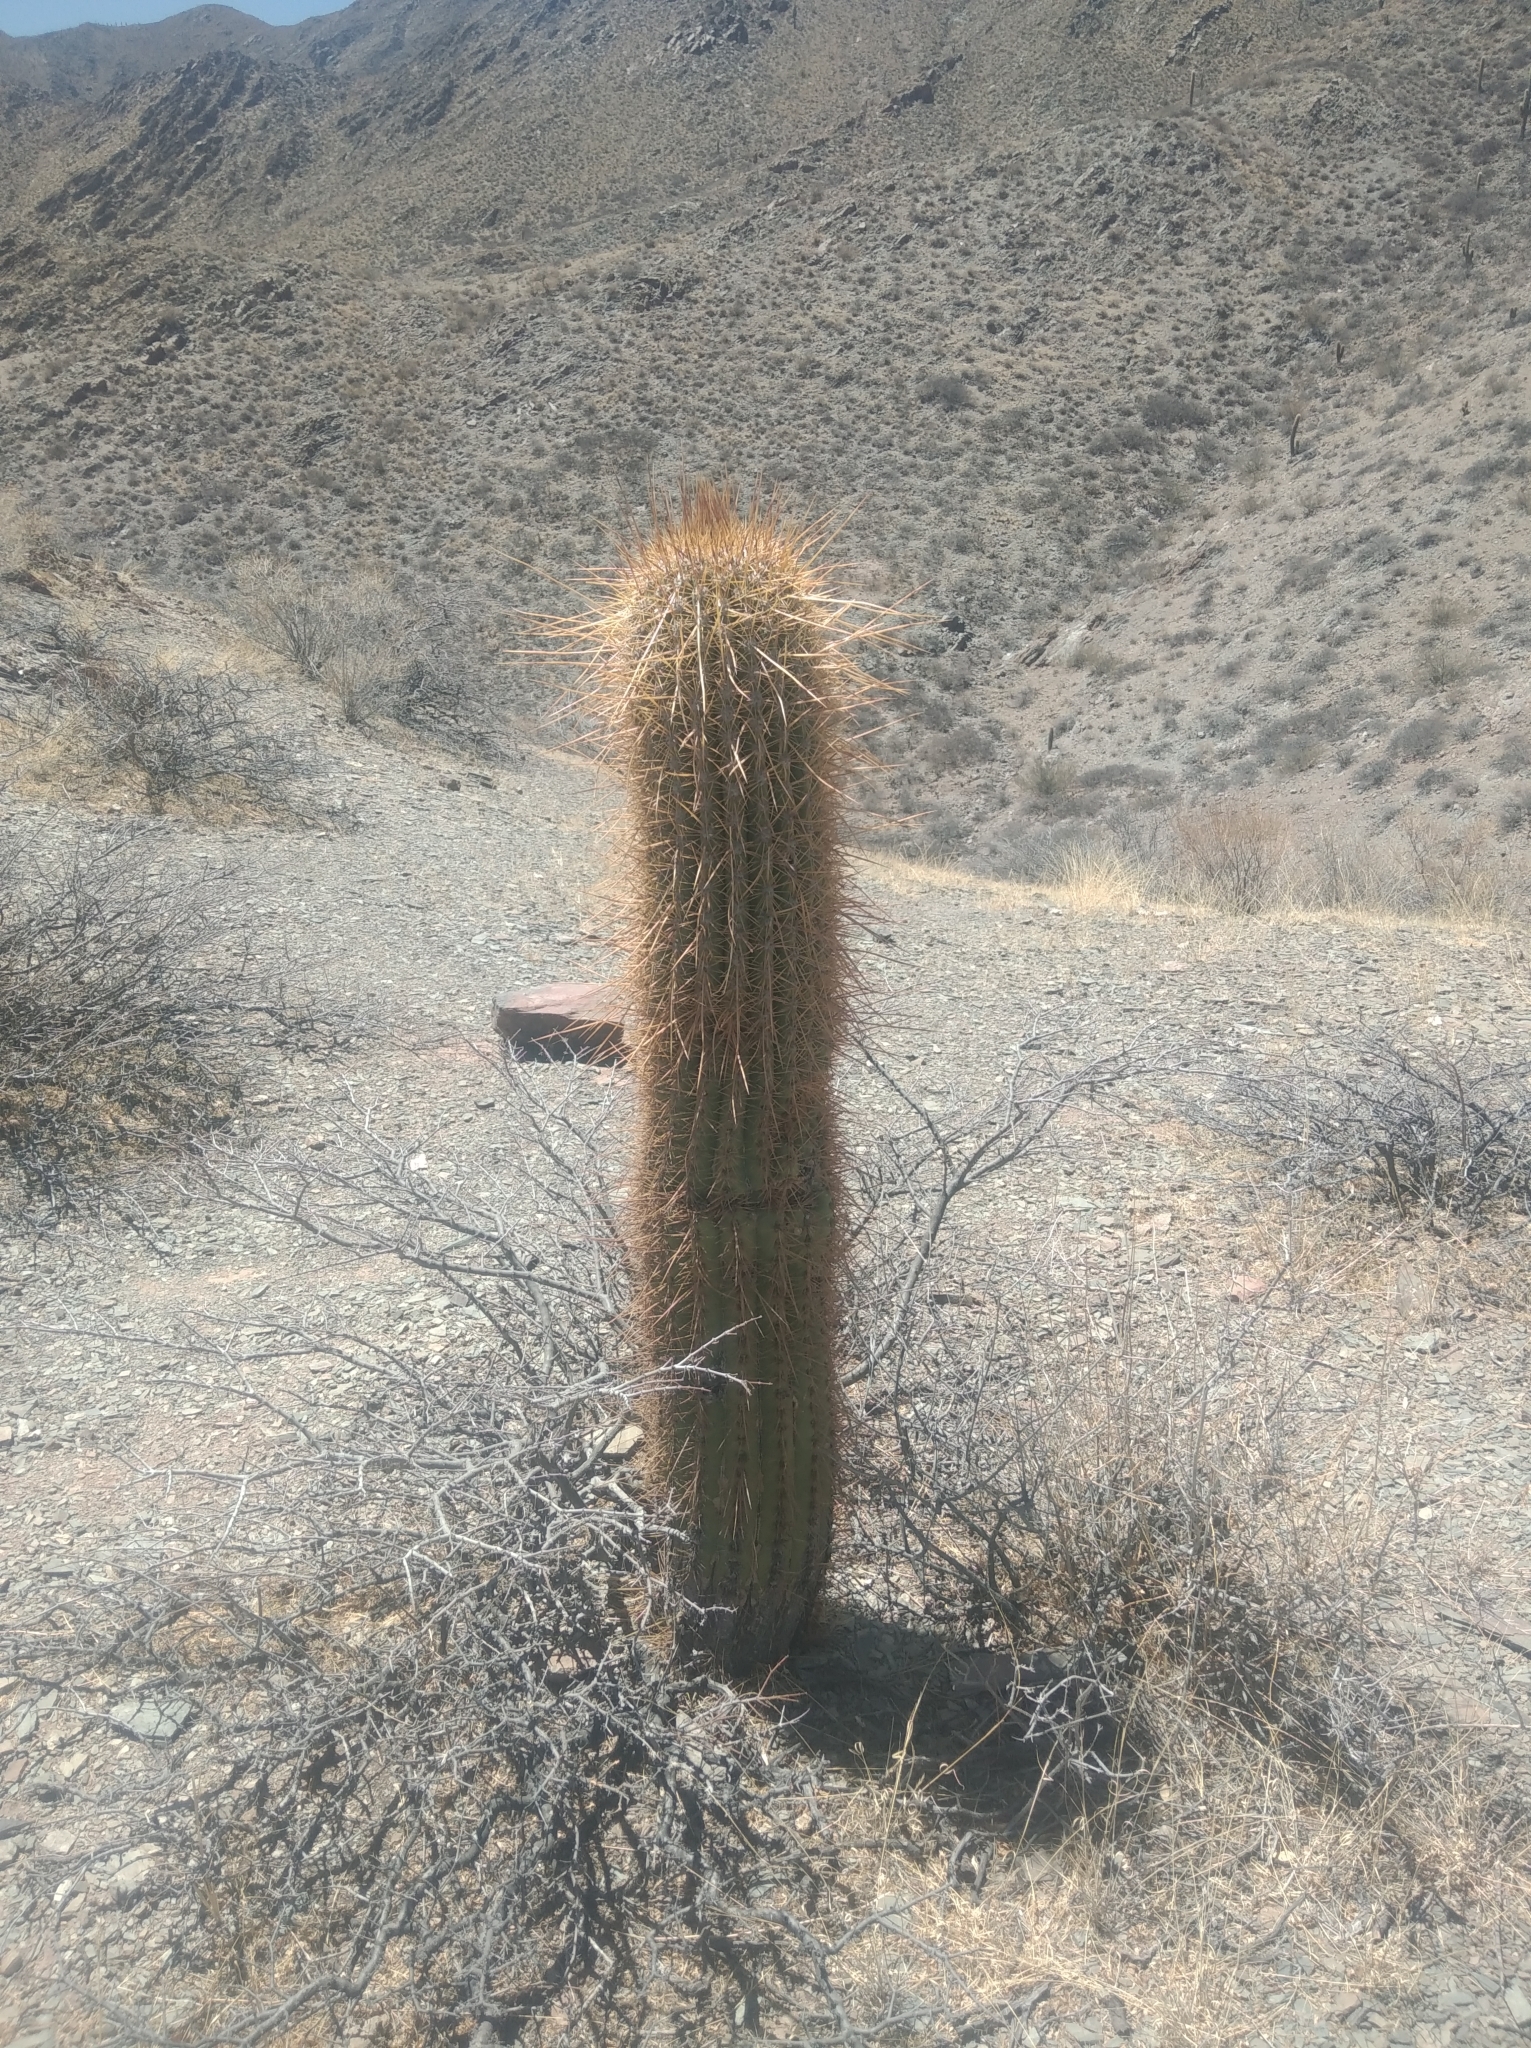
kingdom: Plantae
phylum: Tracheophyta
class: Magnoliopsida
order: Caryophyllales
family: Cactaceae
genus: Leucostele
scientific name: Leucostele atacamensis
